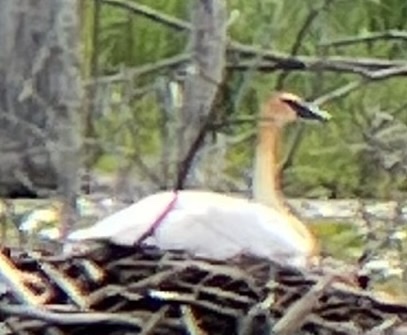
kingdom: Animalia
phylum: Chordata
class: Aves
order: Anseriformes
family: Anatidae
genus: Cygnus
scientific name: Cygnus buccinator
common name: Trumpeter swan
